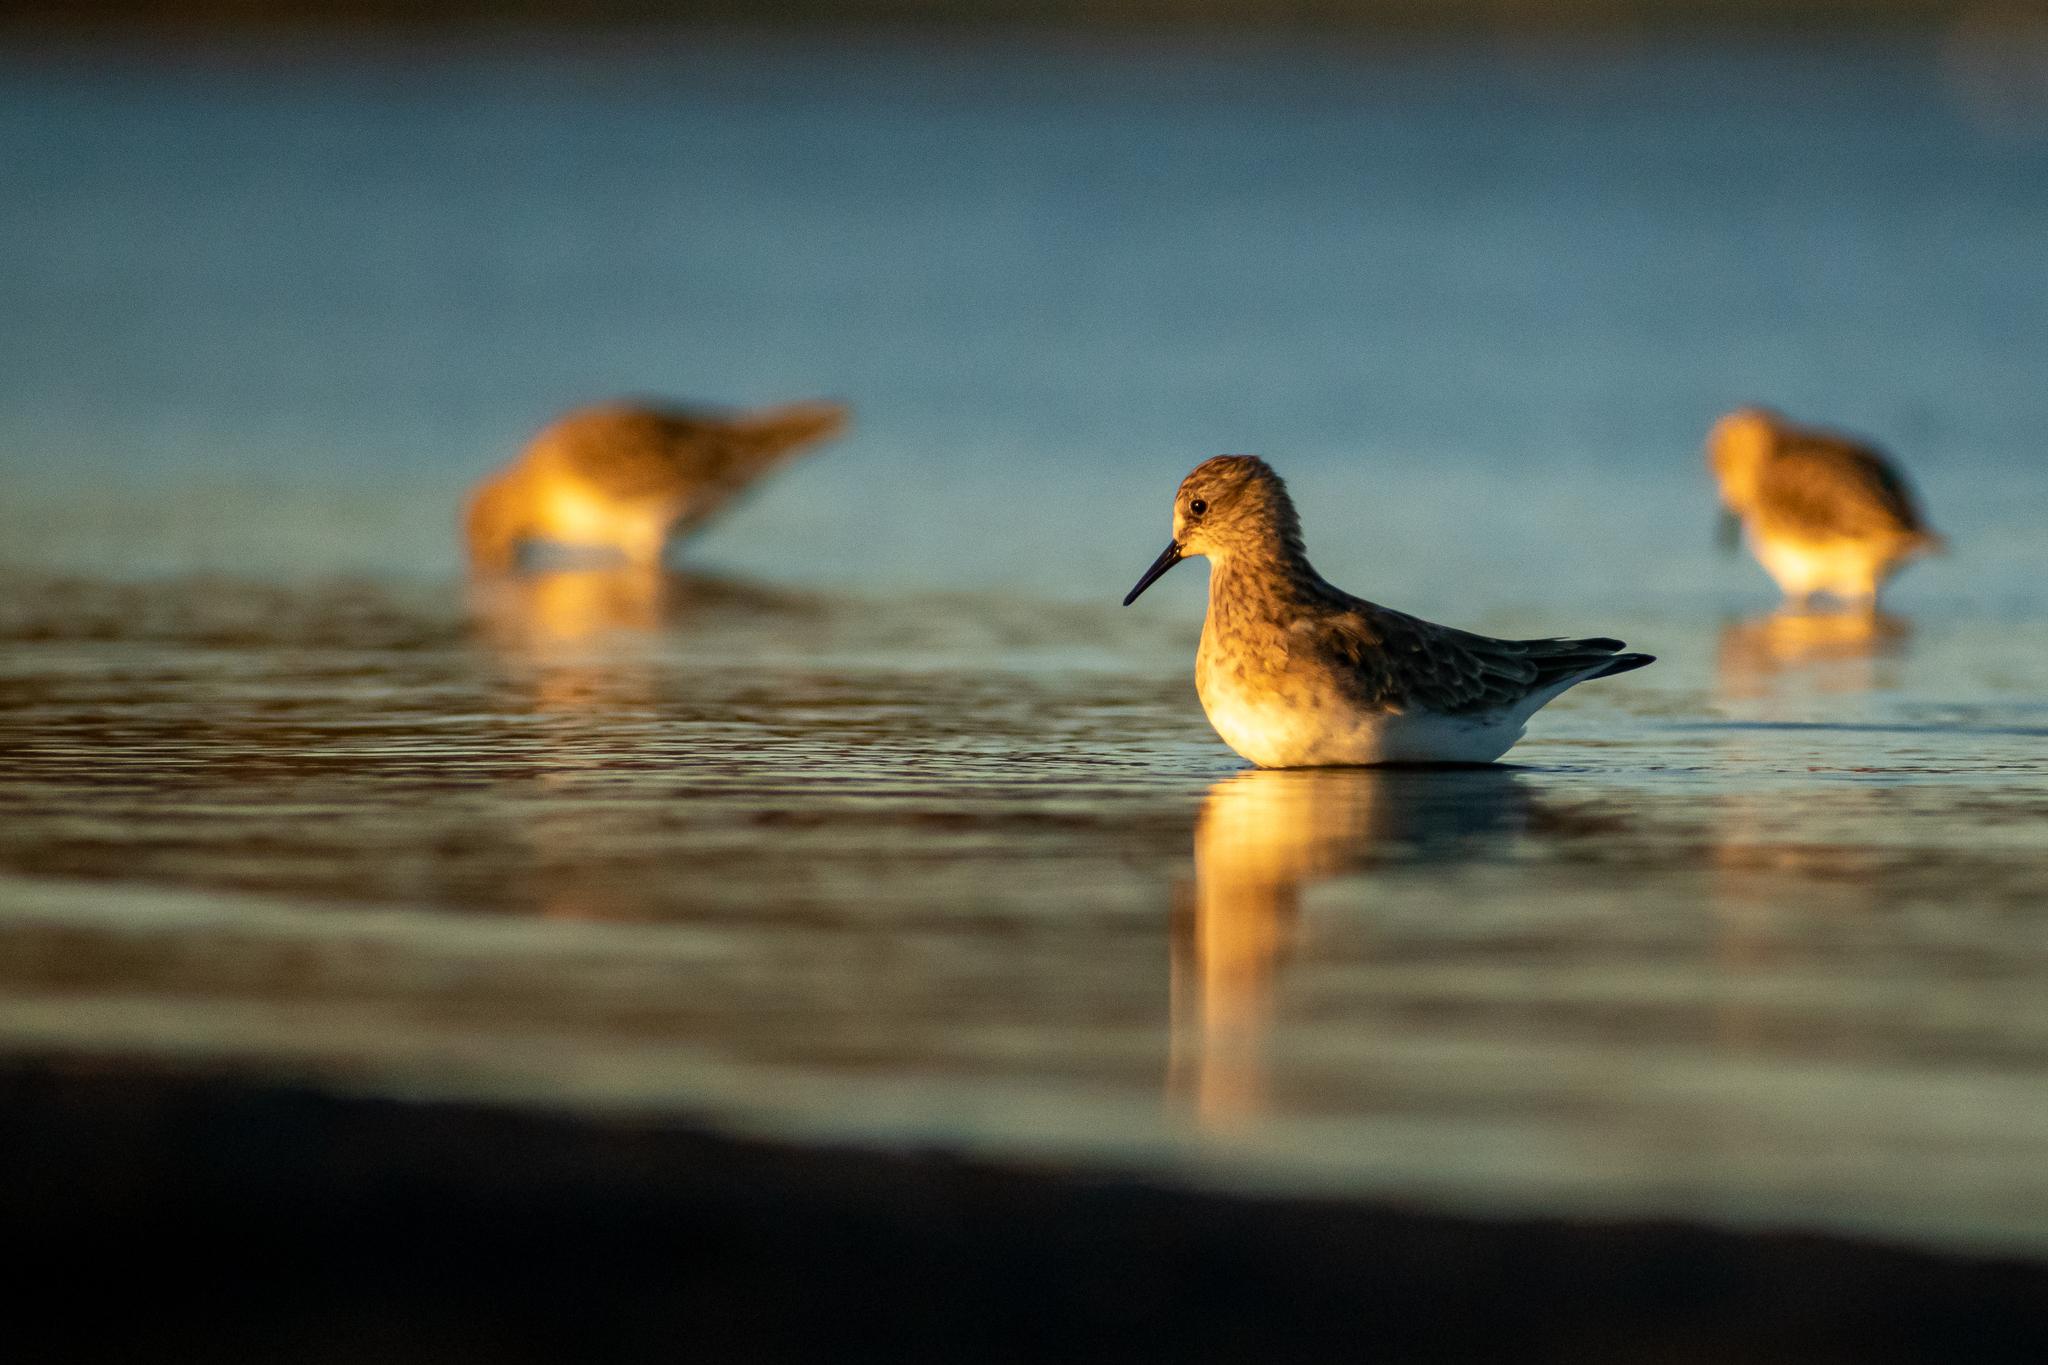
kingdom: Animalia
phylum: Chordata
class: Aves
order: Charadriiformes
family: Scolopacidae
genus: Calidris
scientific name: Calidris bairdii
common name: Baird's sandpiper
